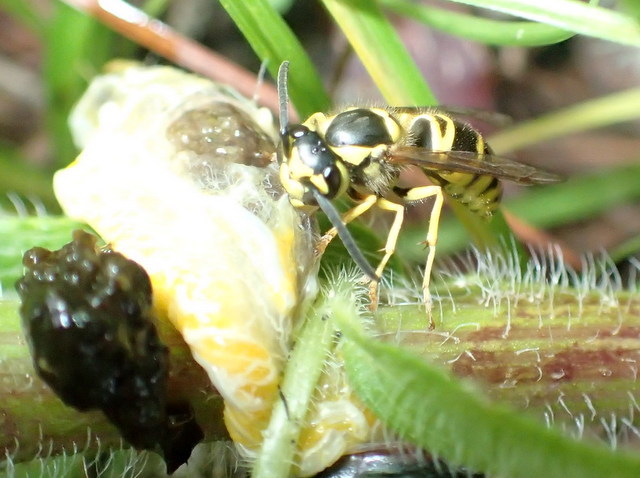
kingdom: Animalia
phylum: Arthropoda
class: Insecta
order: Hymenoptera
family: Vespidae
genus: Vespula
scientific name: Vespula maculifrons
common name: Eastern yellowjacket
